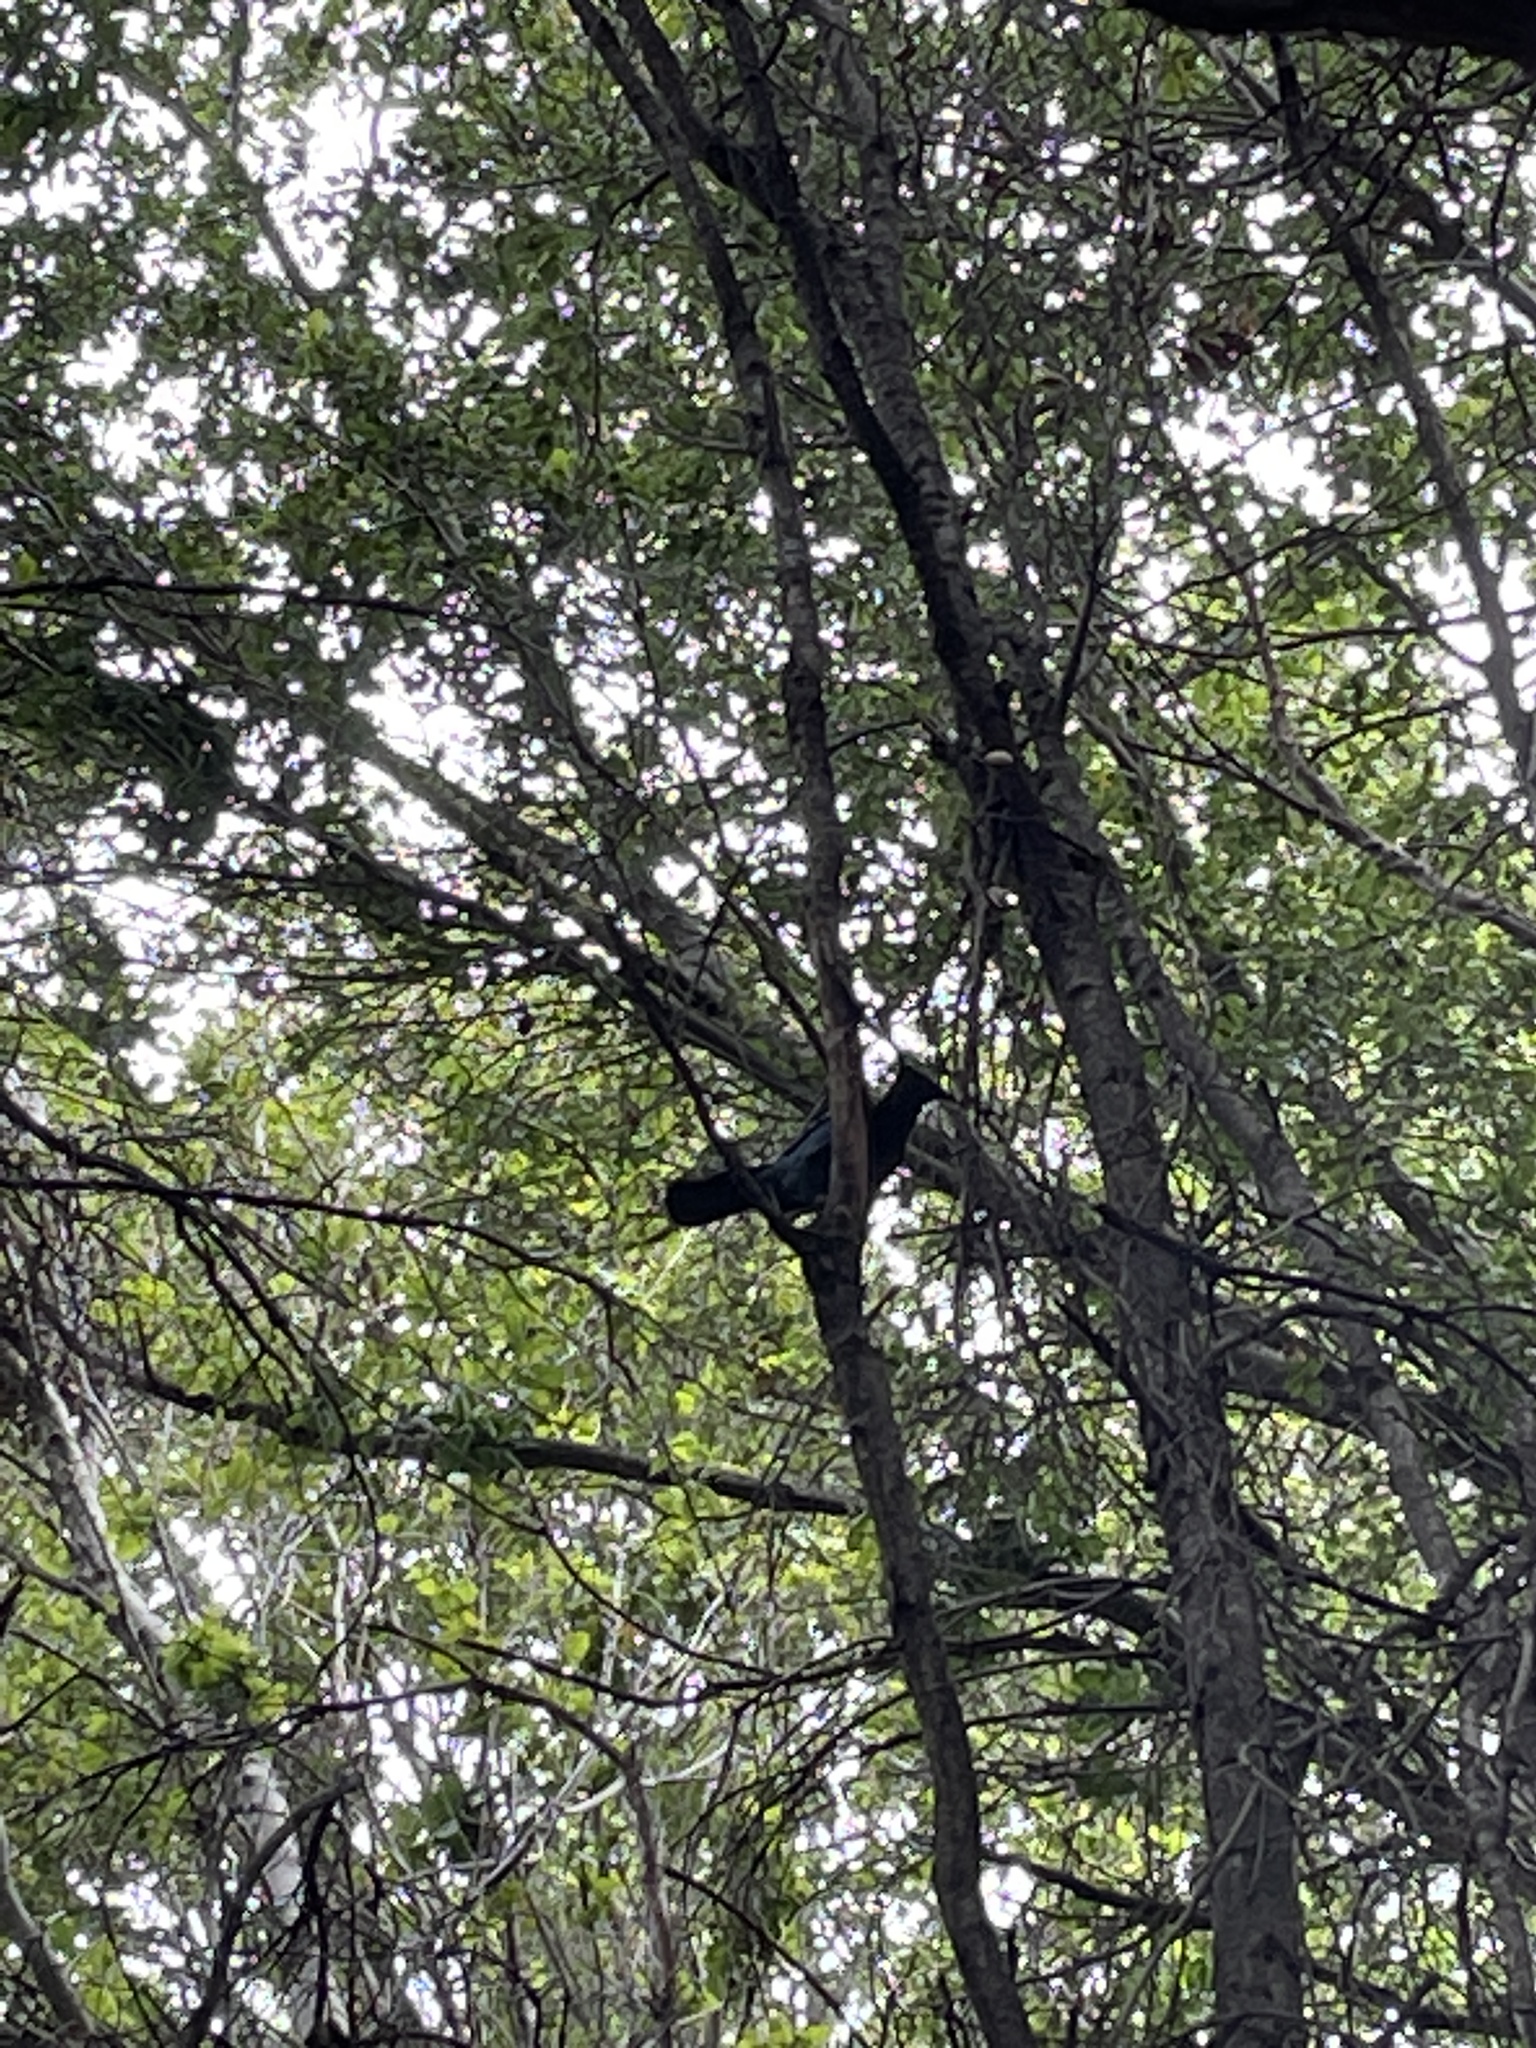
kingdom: Animalia
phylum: Chordata
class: Aves
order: Passeriformes
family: Corvidae
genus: Cyanocitta
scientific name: Cyanocitta stelleri
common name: Steller's jay
